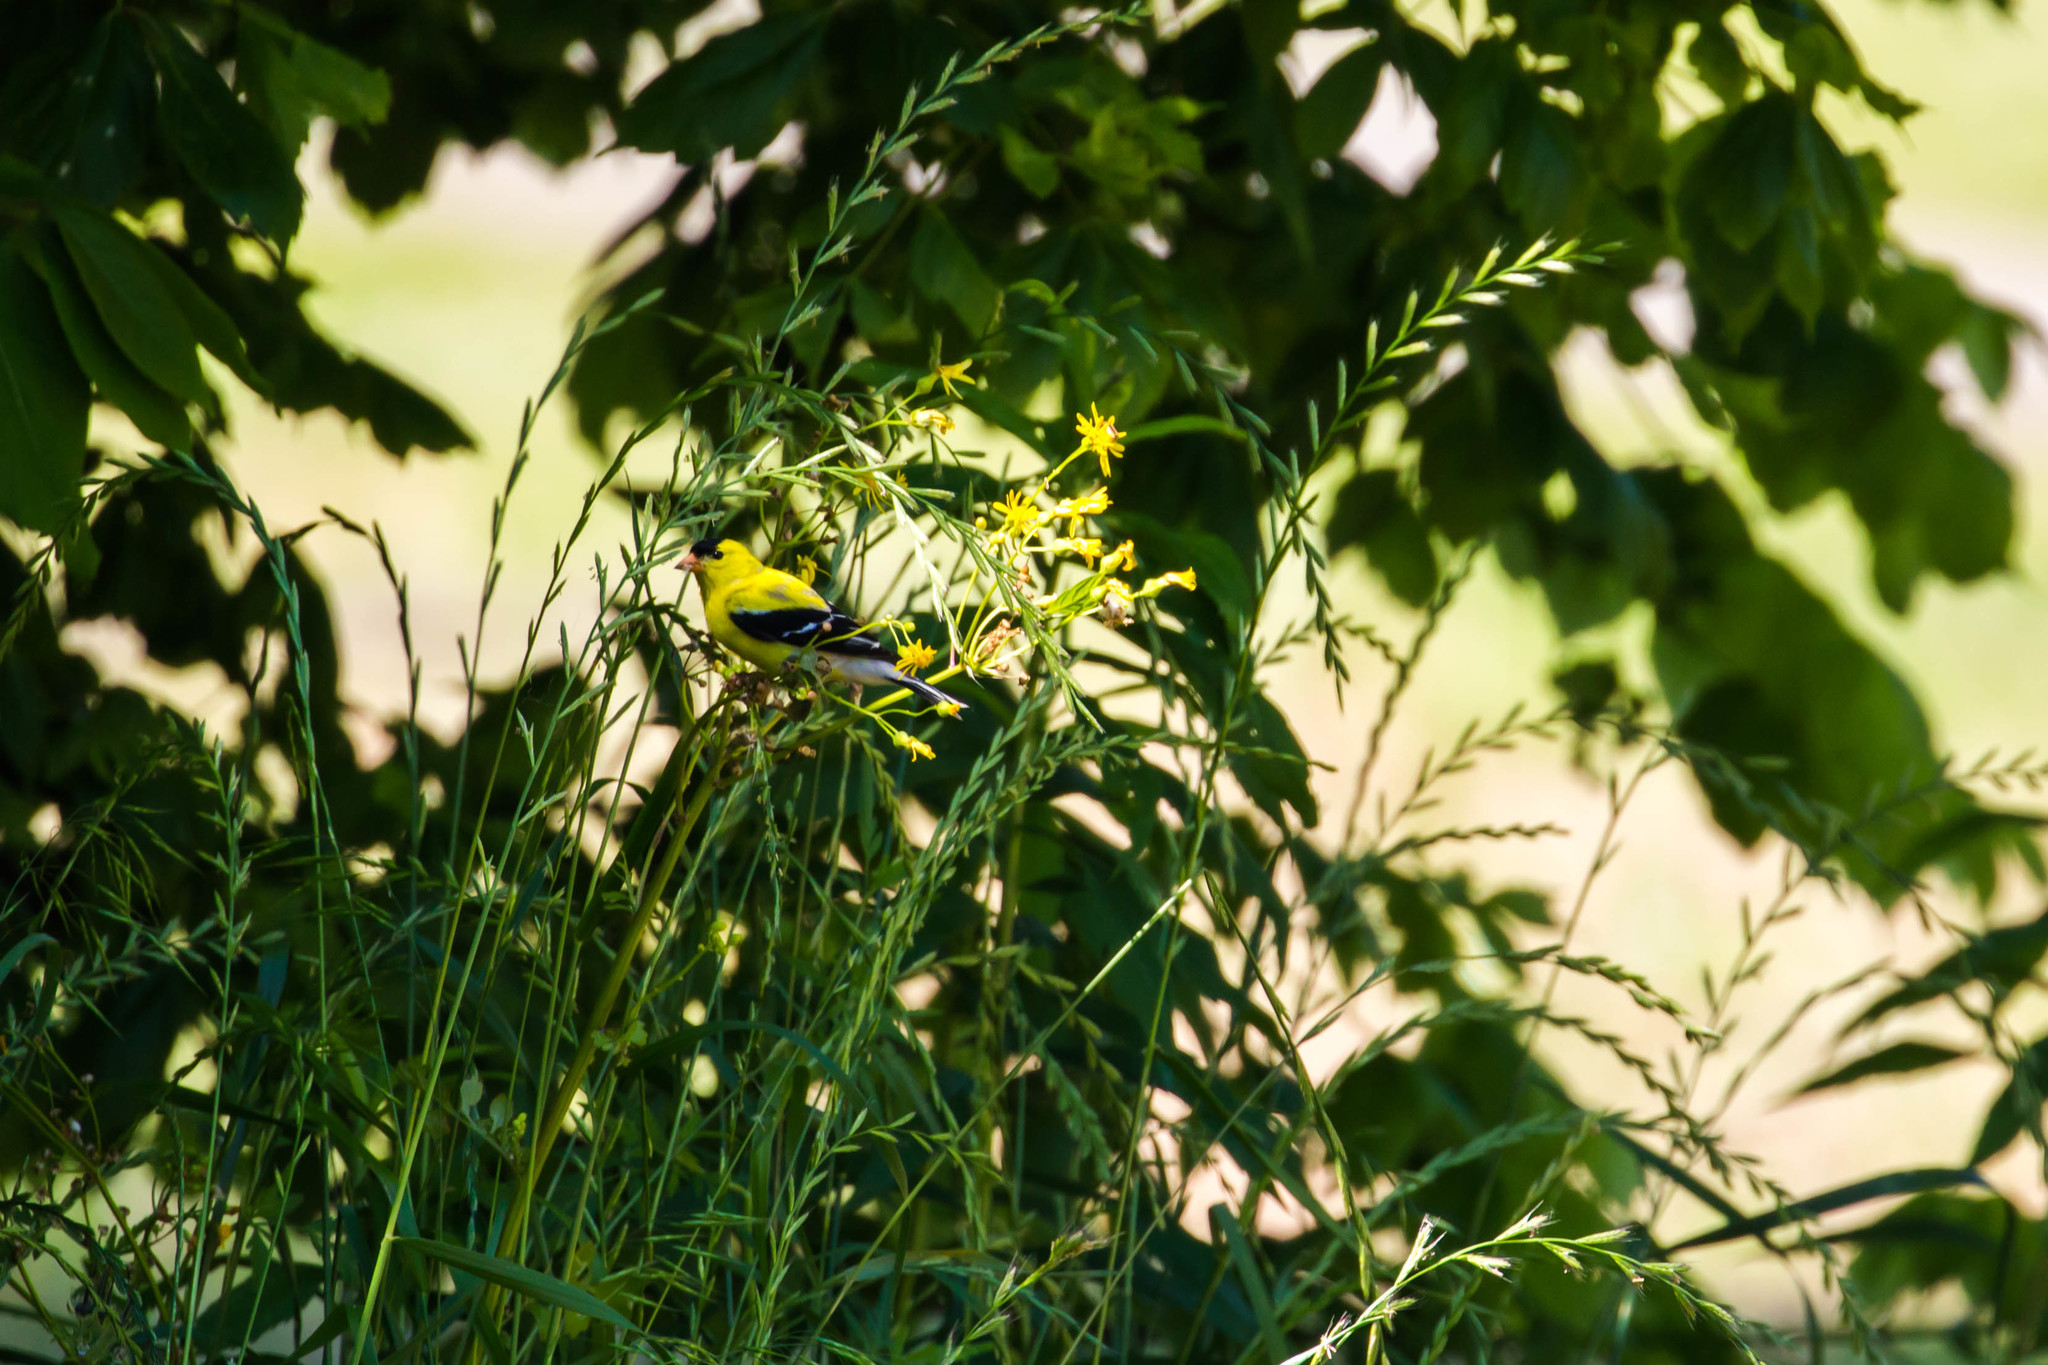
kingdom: Animalia
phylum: Chordata
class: Aves
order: Passeriformes
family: Fringillidae
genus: Spinus
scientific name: Spinus tristis
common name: American goldfinch
